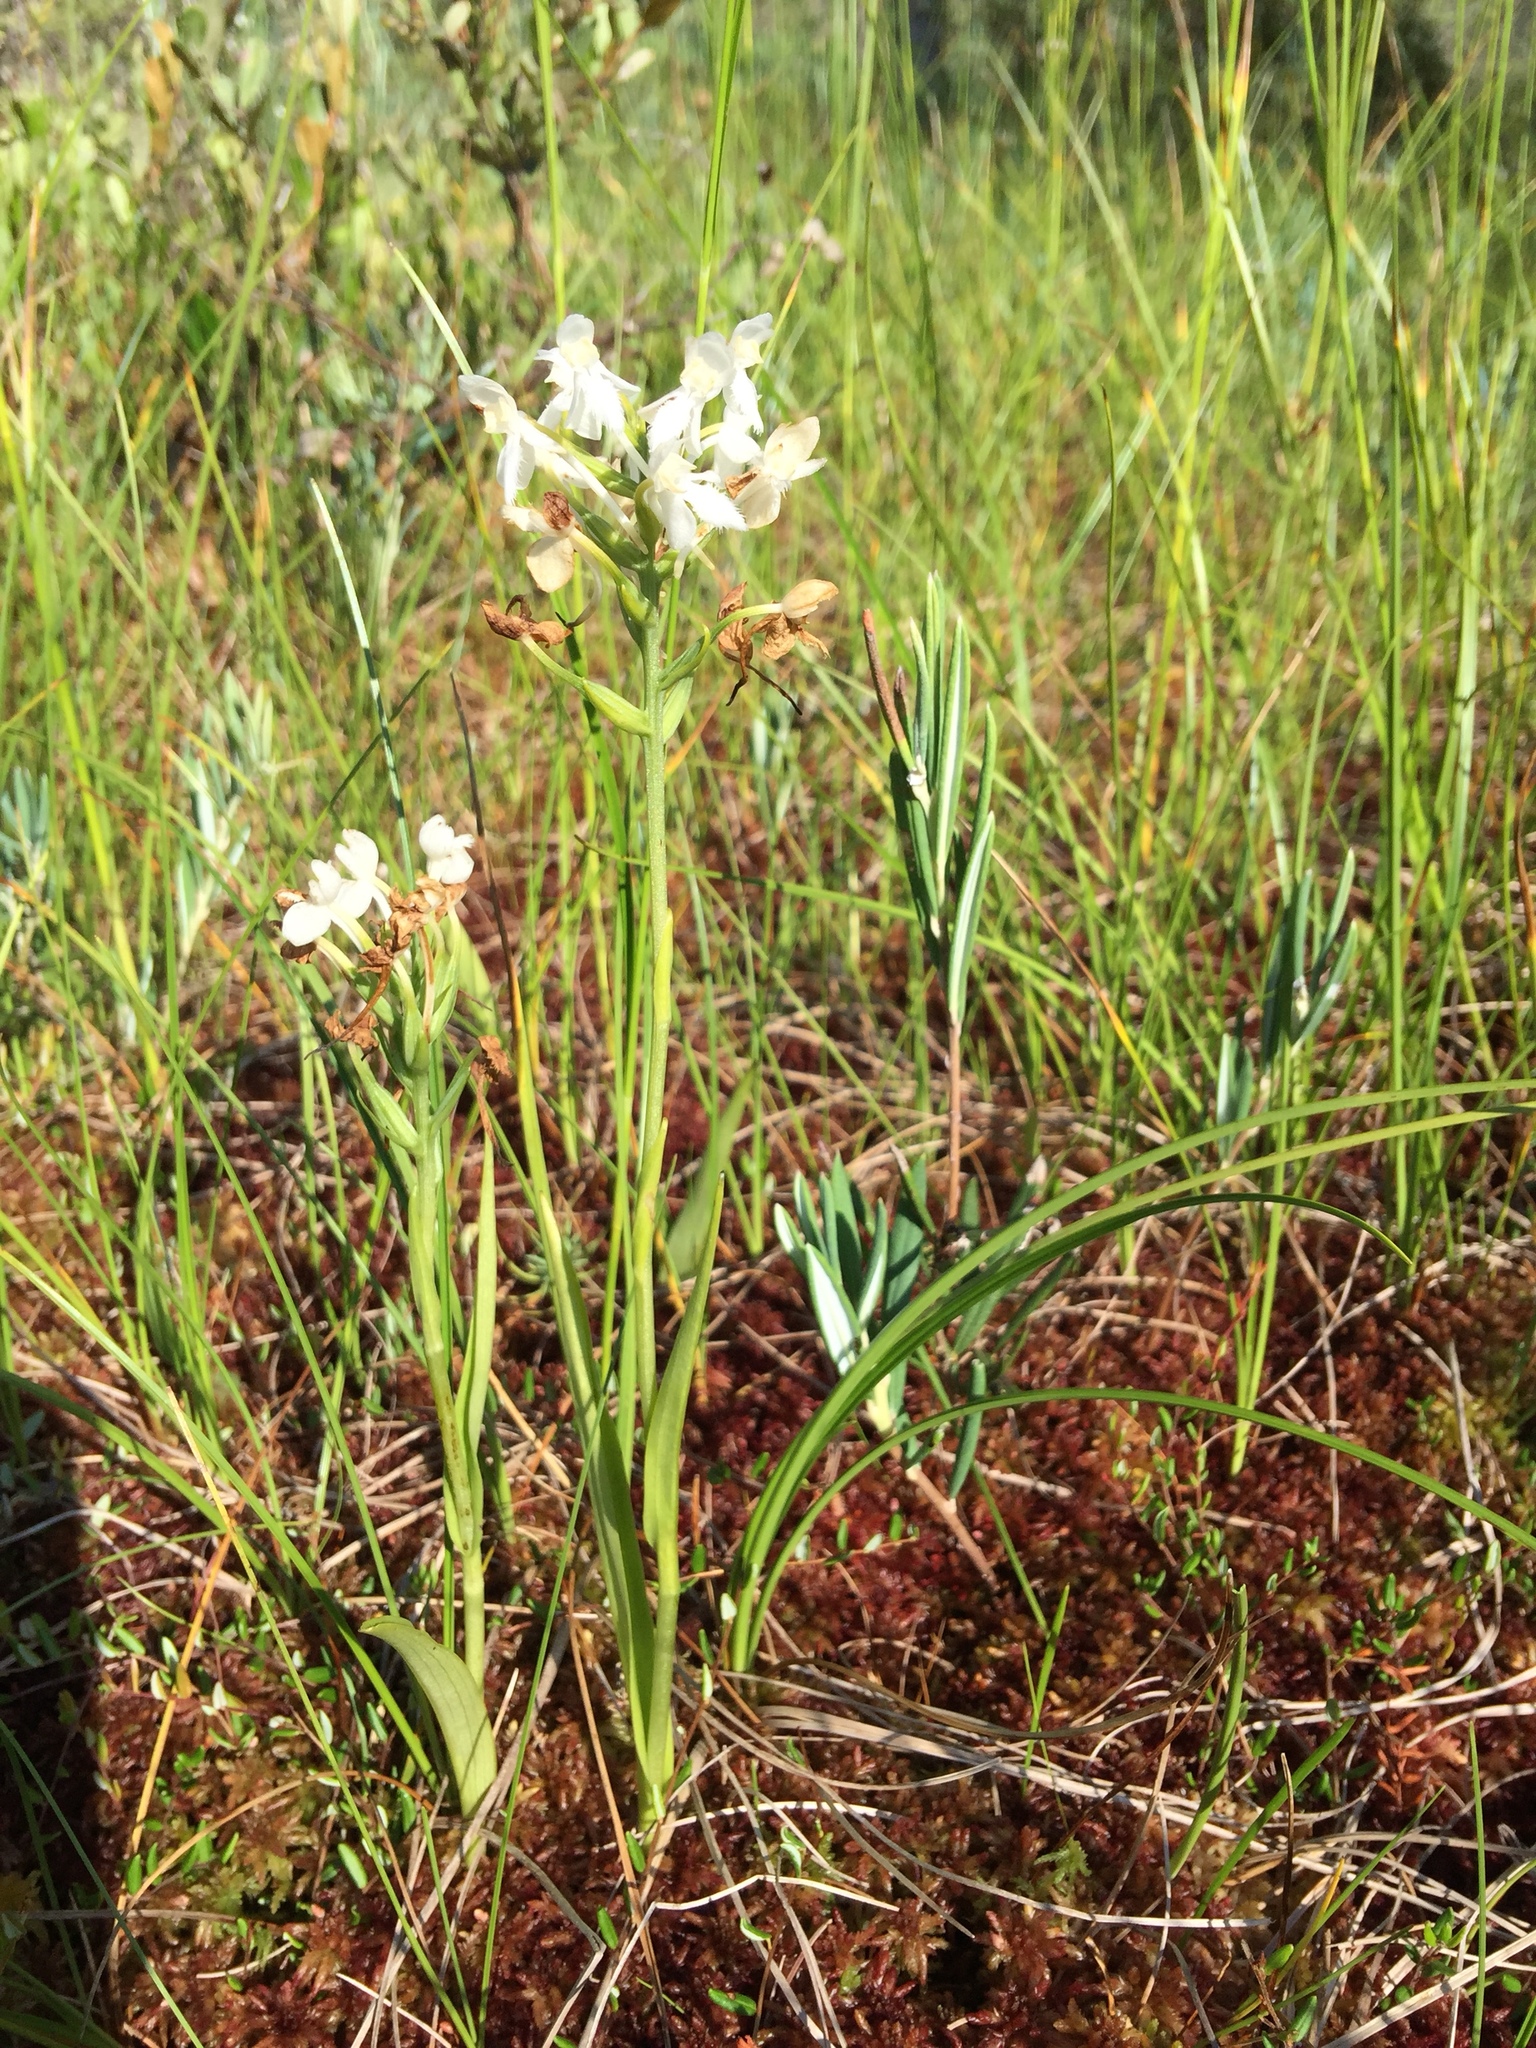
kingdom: Plantae
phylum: Tracheophyta
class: Liliopsida
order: Asparagales
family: Orchidaceae
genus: Platanthera
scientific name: Platanthera blephariglottis
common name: White fringed orchid
